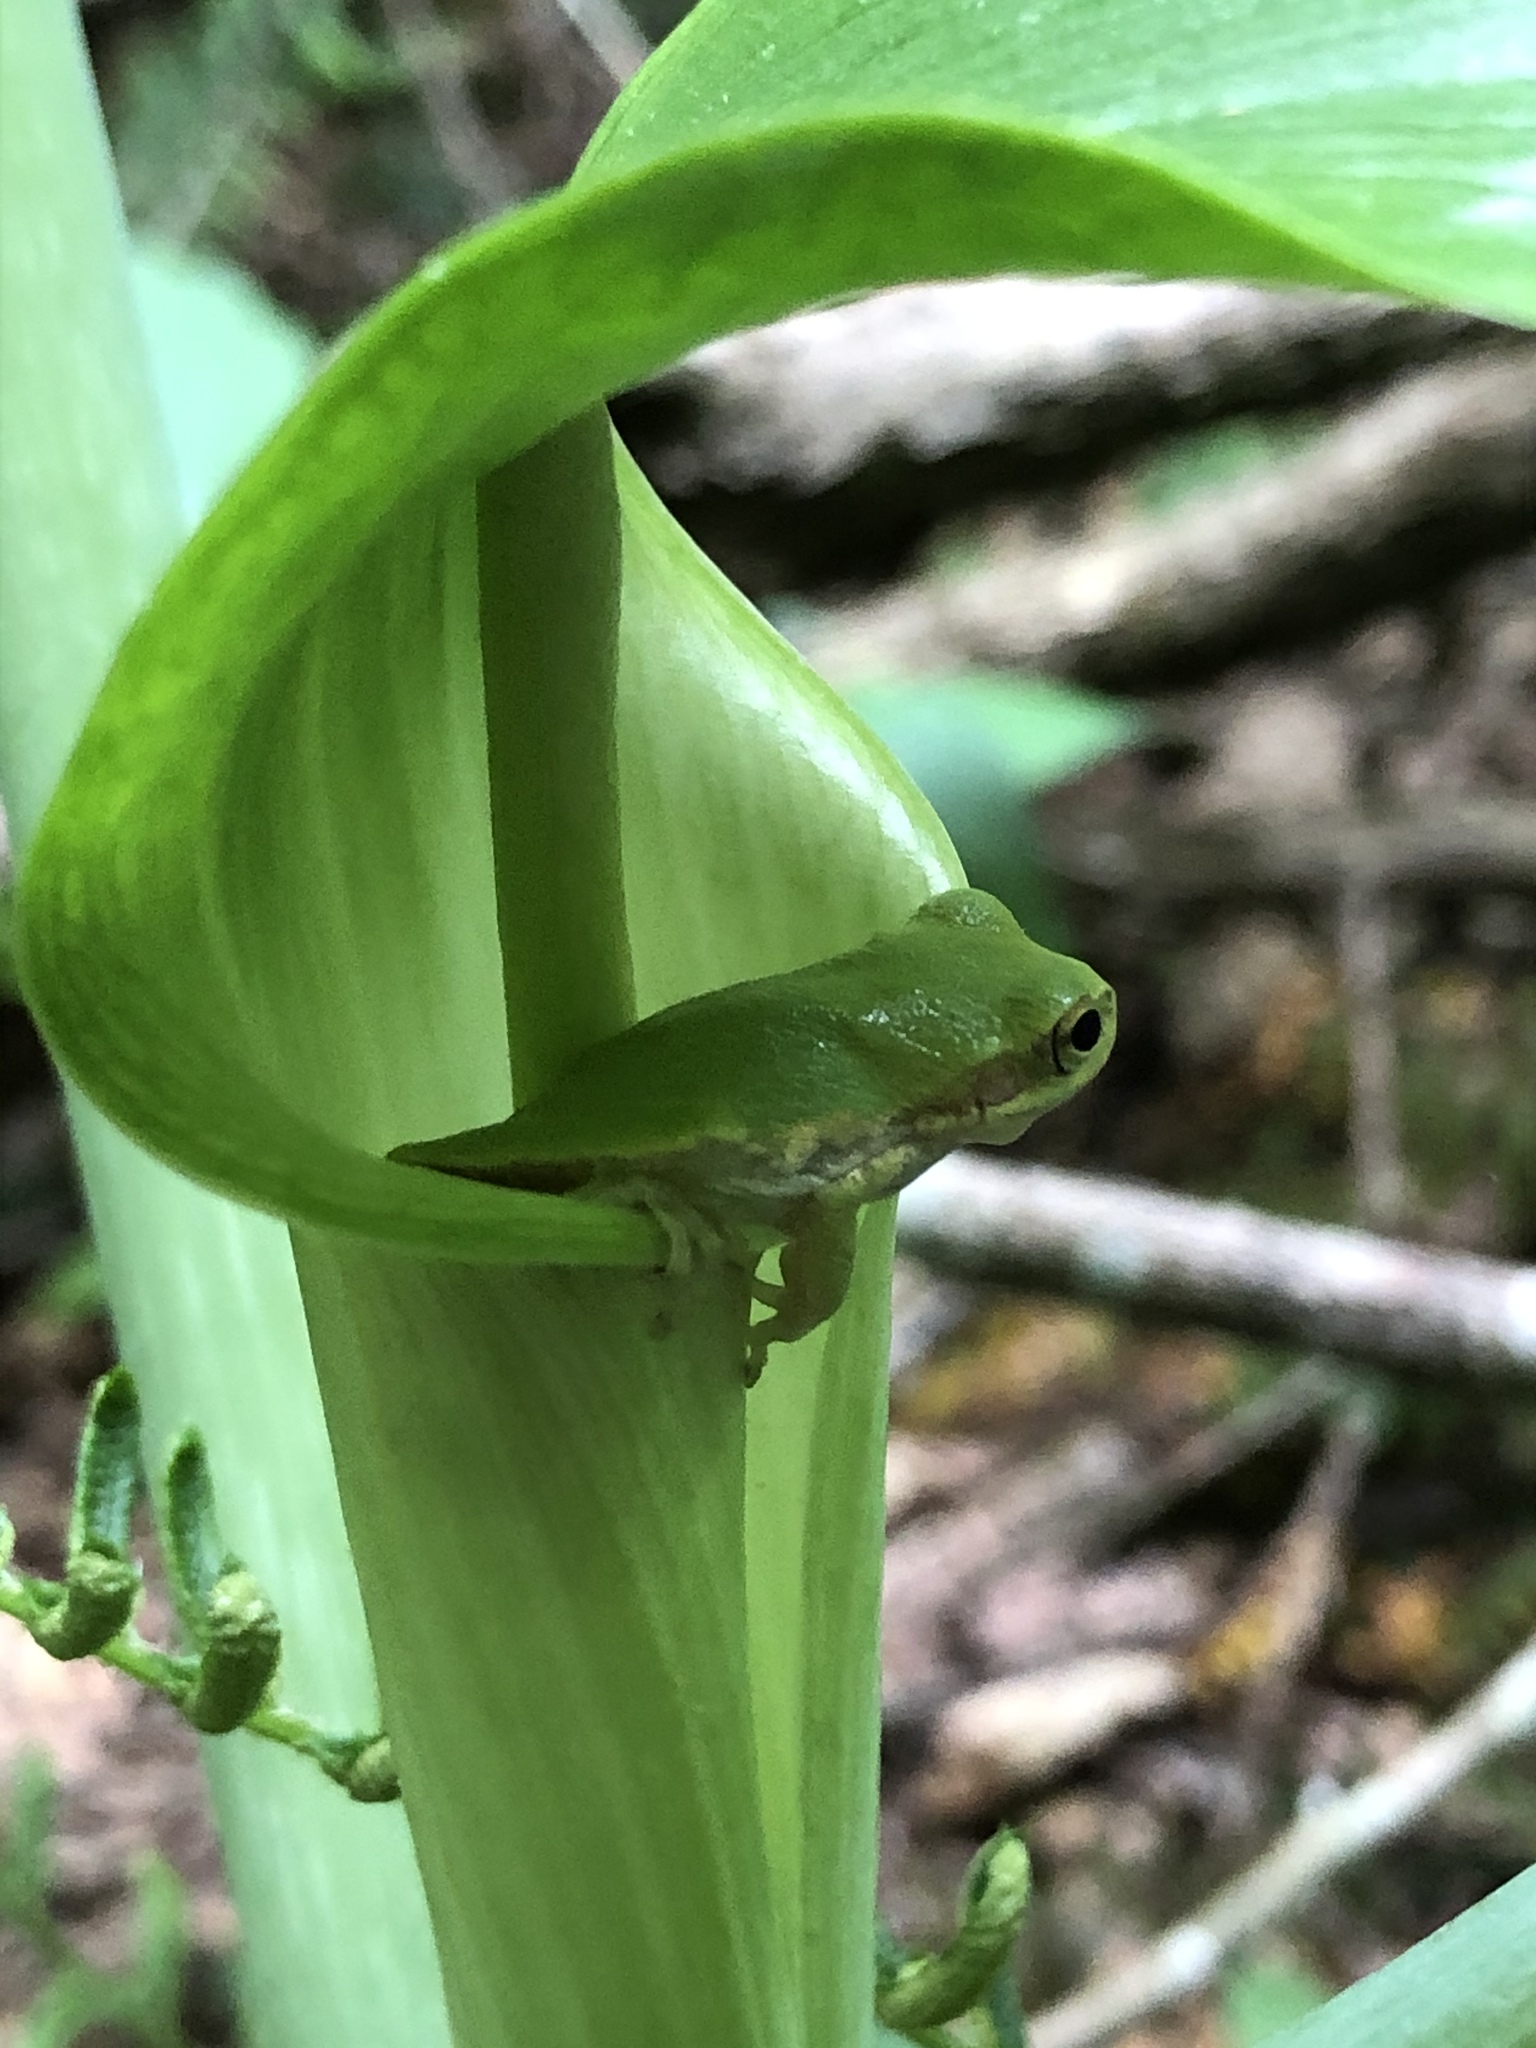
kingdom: Animalia
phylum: Chordata
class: Amphibia
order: Anura
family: Hylidae
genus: Dryophytes
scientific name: Dryophytes cinereus
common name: Green treefrog
